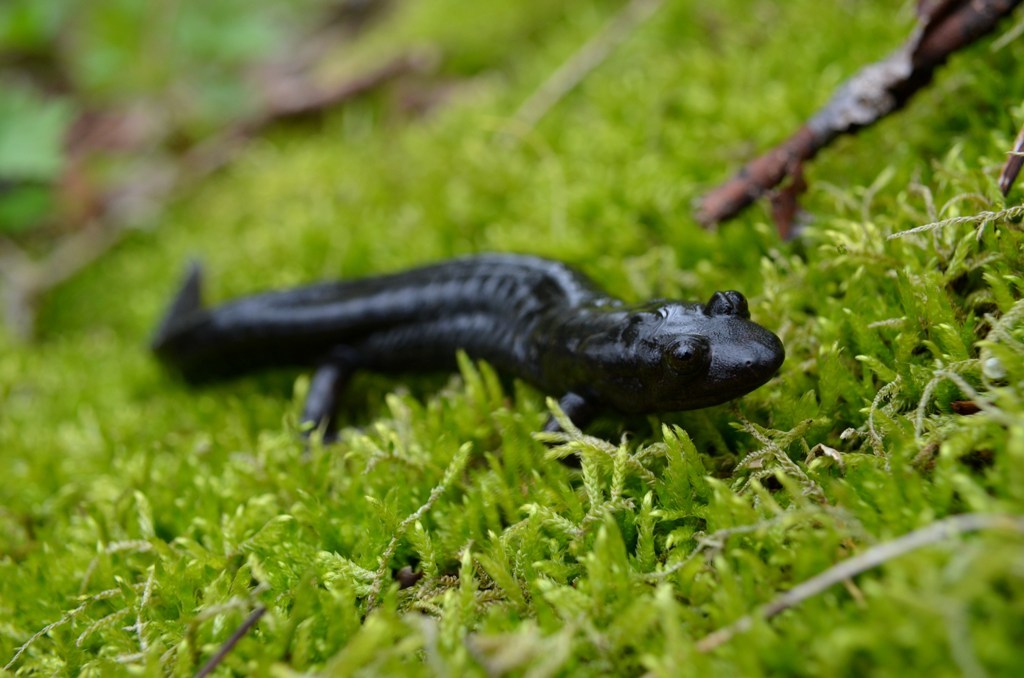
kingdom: Animalia
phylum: Chordata
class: Amphibia
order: Caudata
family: Plethodontidae
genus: Desmognathus
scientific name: Desmognathus monticola
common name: Seal salamander
